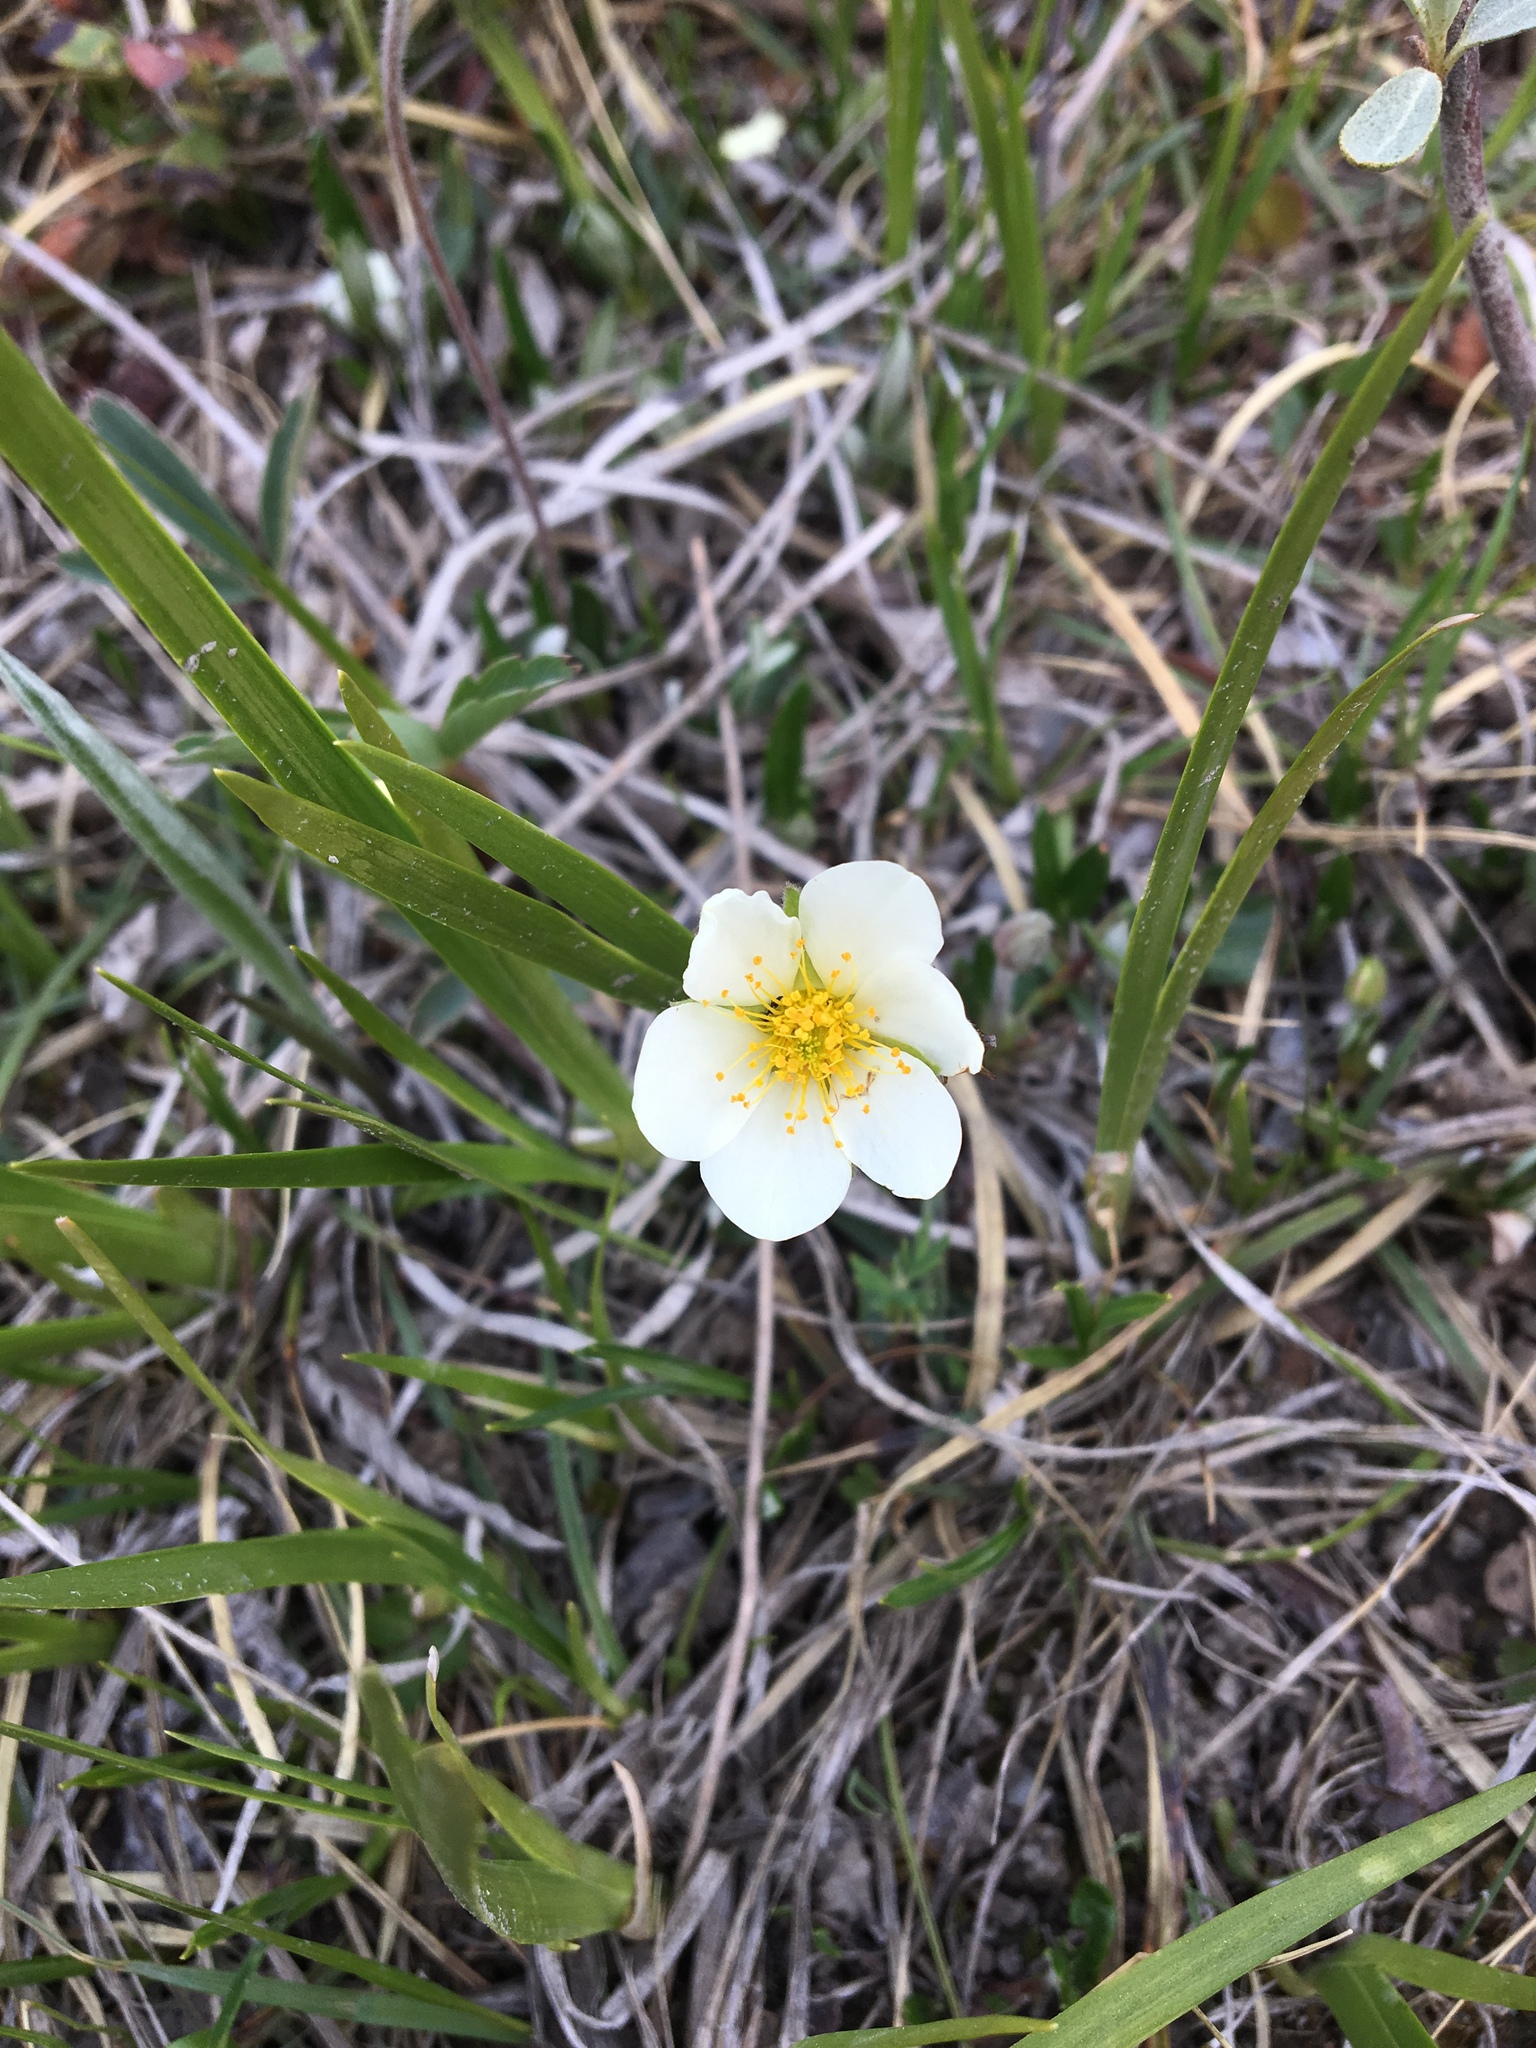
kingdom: Plantae
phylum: Tracheophyta
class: Magnoliopsida
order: Rosales
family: Rosaceae
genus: Dryas
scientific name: Dryas integrifolia
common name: Entire-leaved mountain avens
